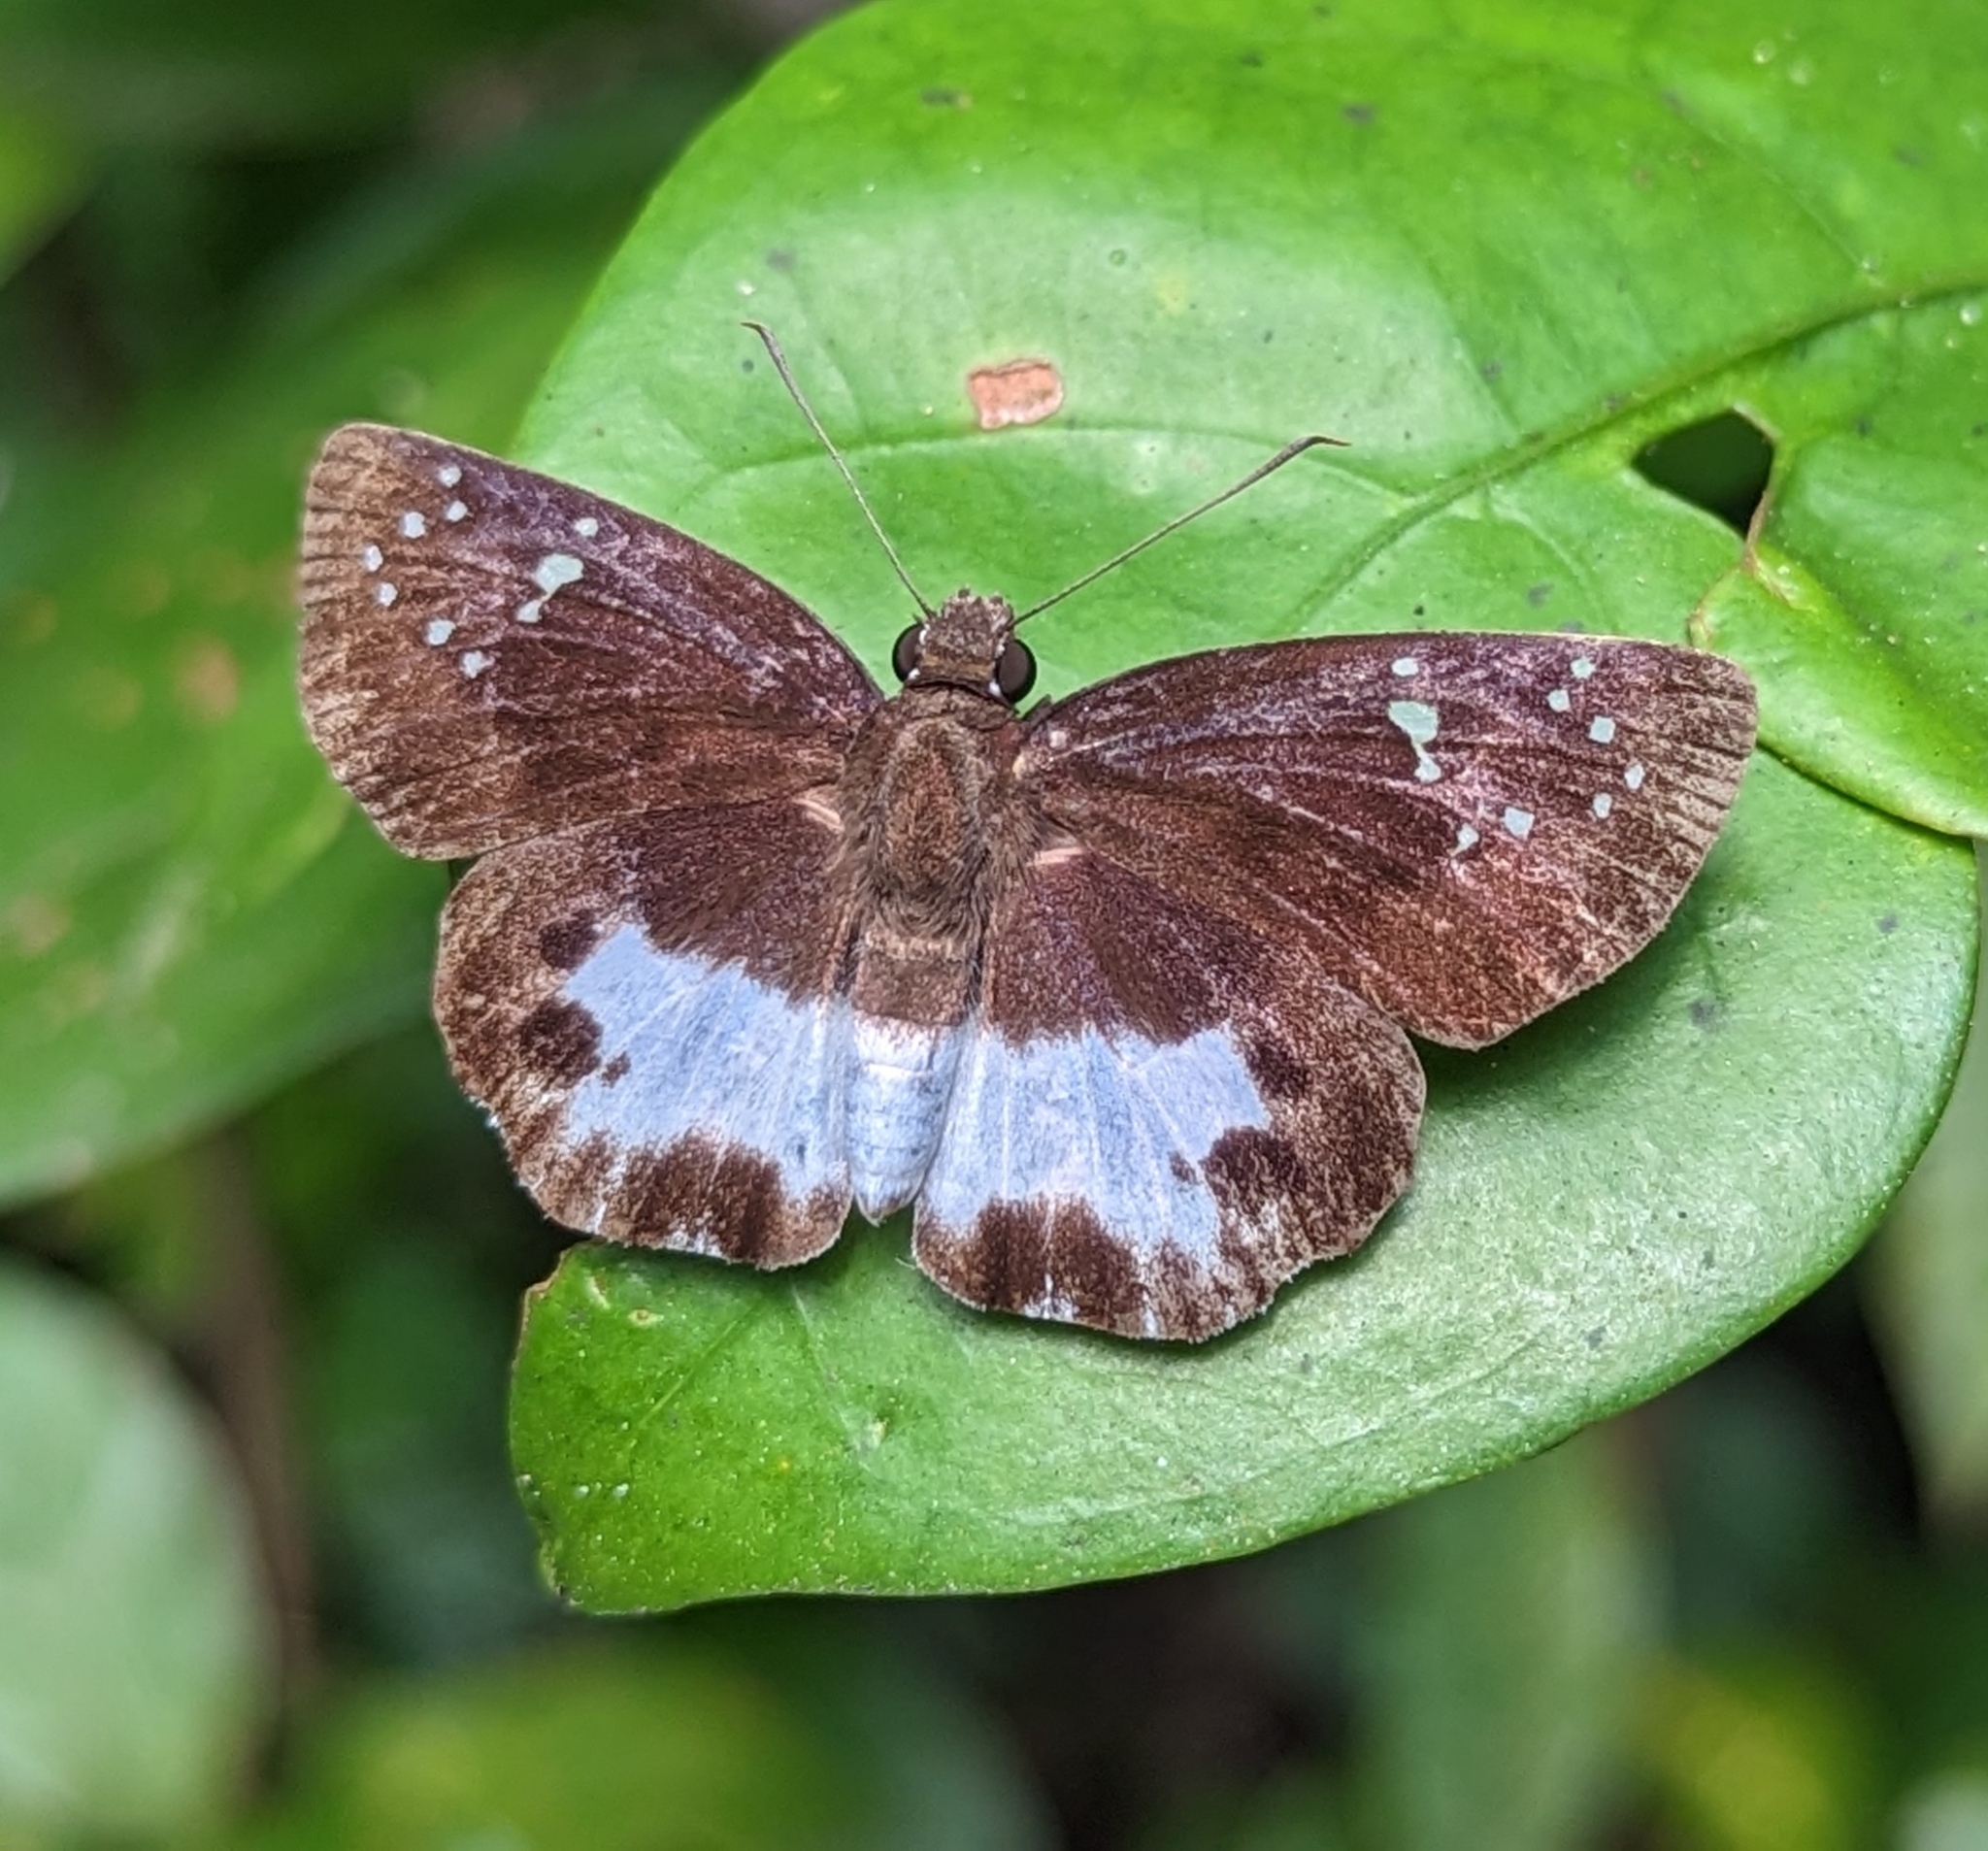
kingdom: Animalia
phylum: Arthropoda
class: Insecta
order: Lepidoptera
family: Hesperiidae
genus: Tagiades
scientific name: Tagiades litigiosa
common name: Water snow flat
